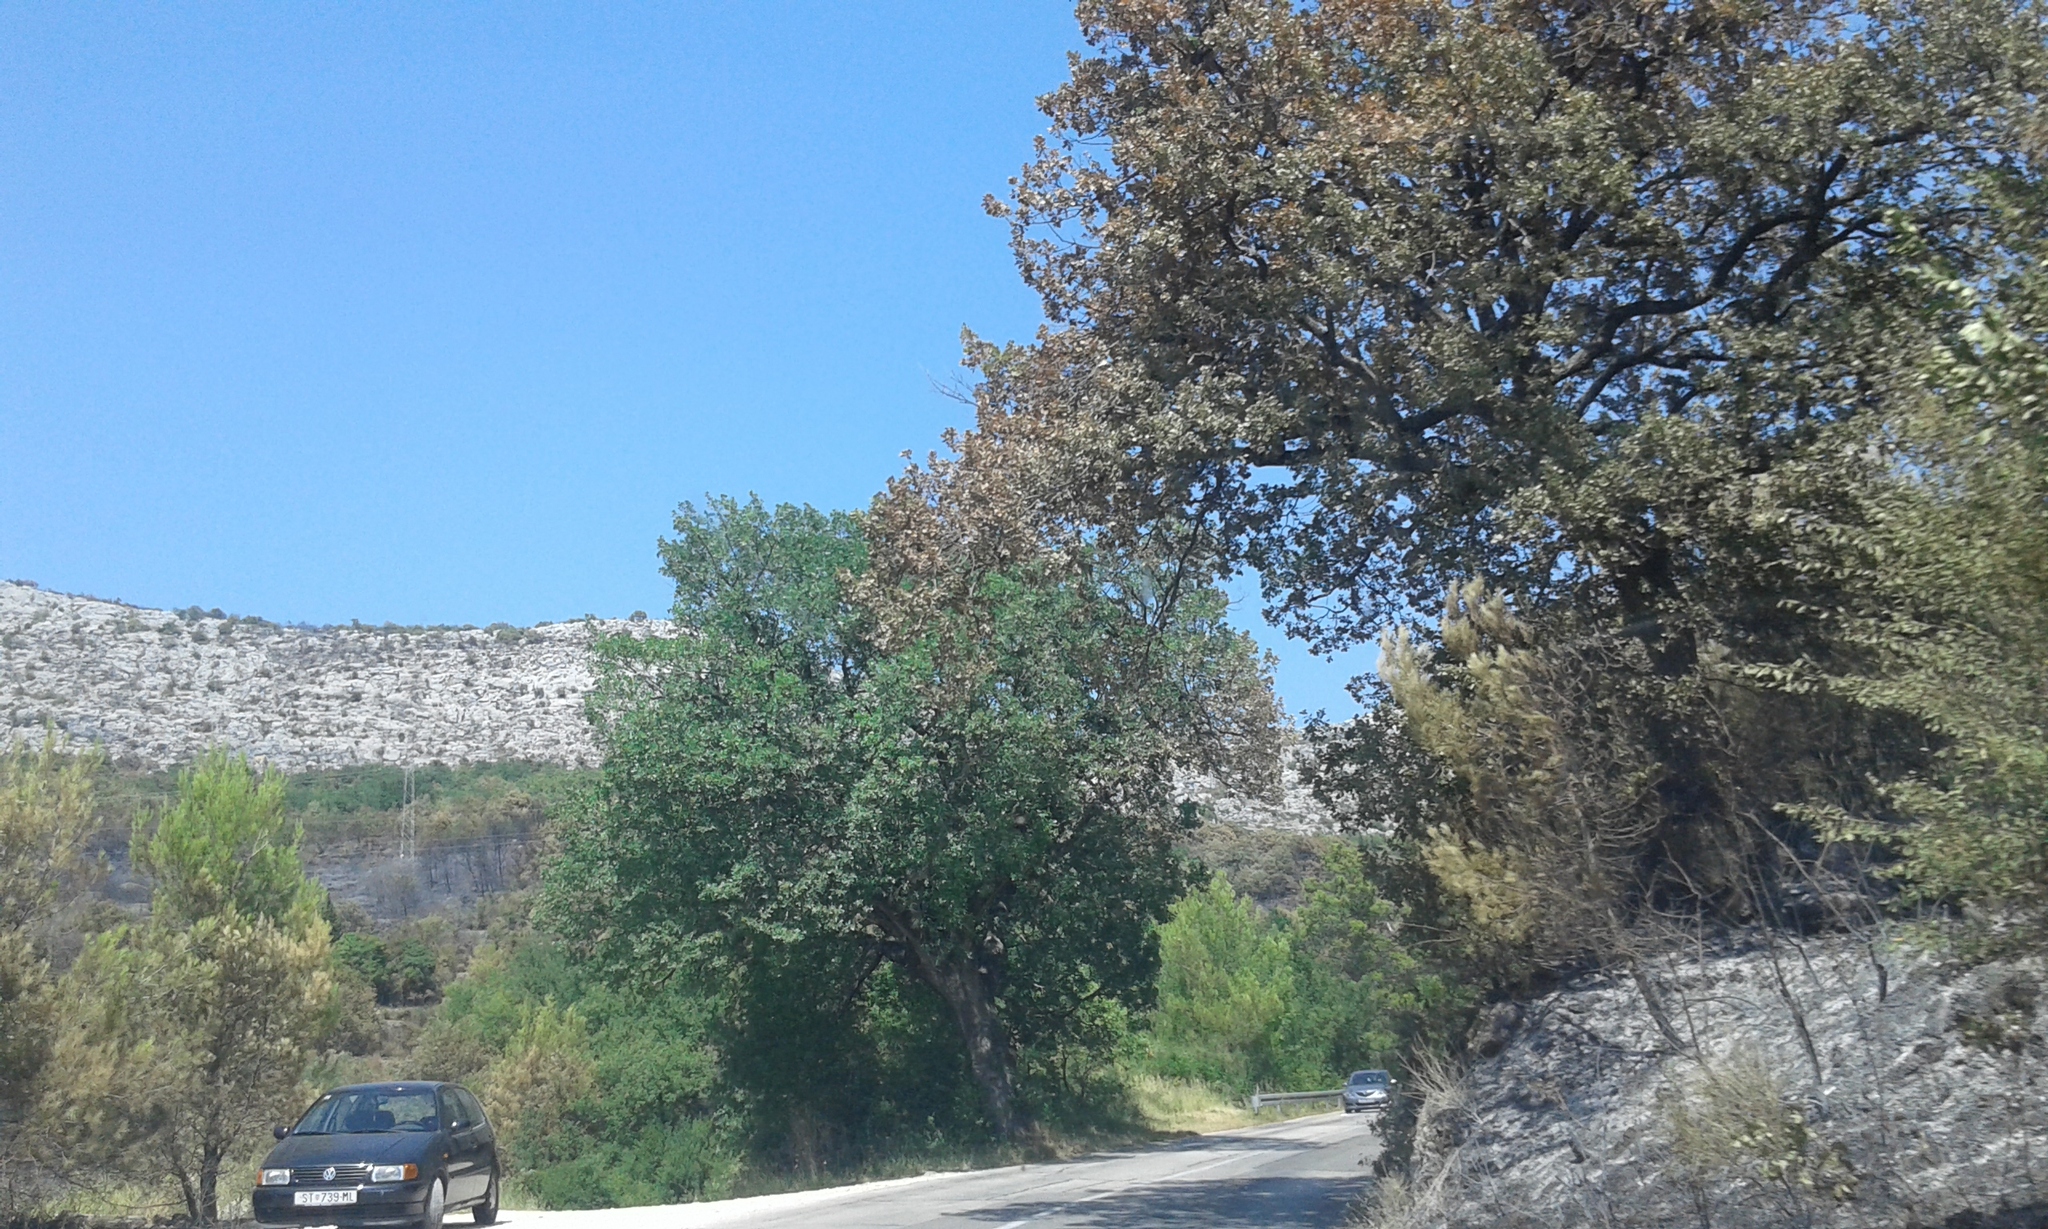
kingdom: Plantae
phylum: Tracheophyta
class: Magnoliopsida
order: Fagales
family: Fagaceae
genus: Quercus
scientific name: Quercus pubescens
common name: Downy oak
